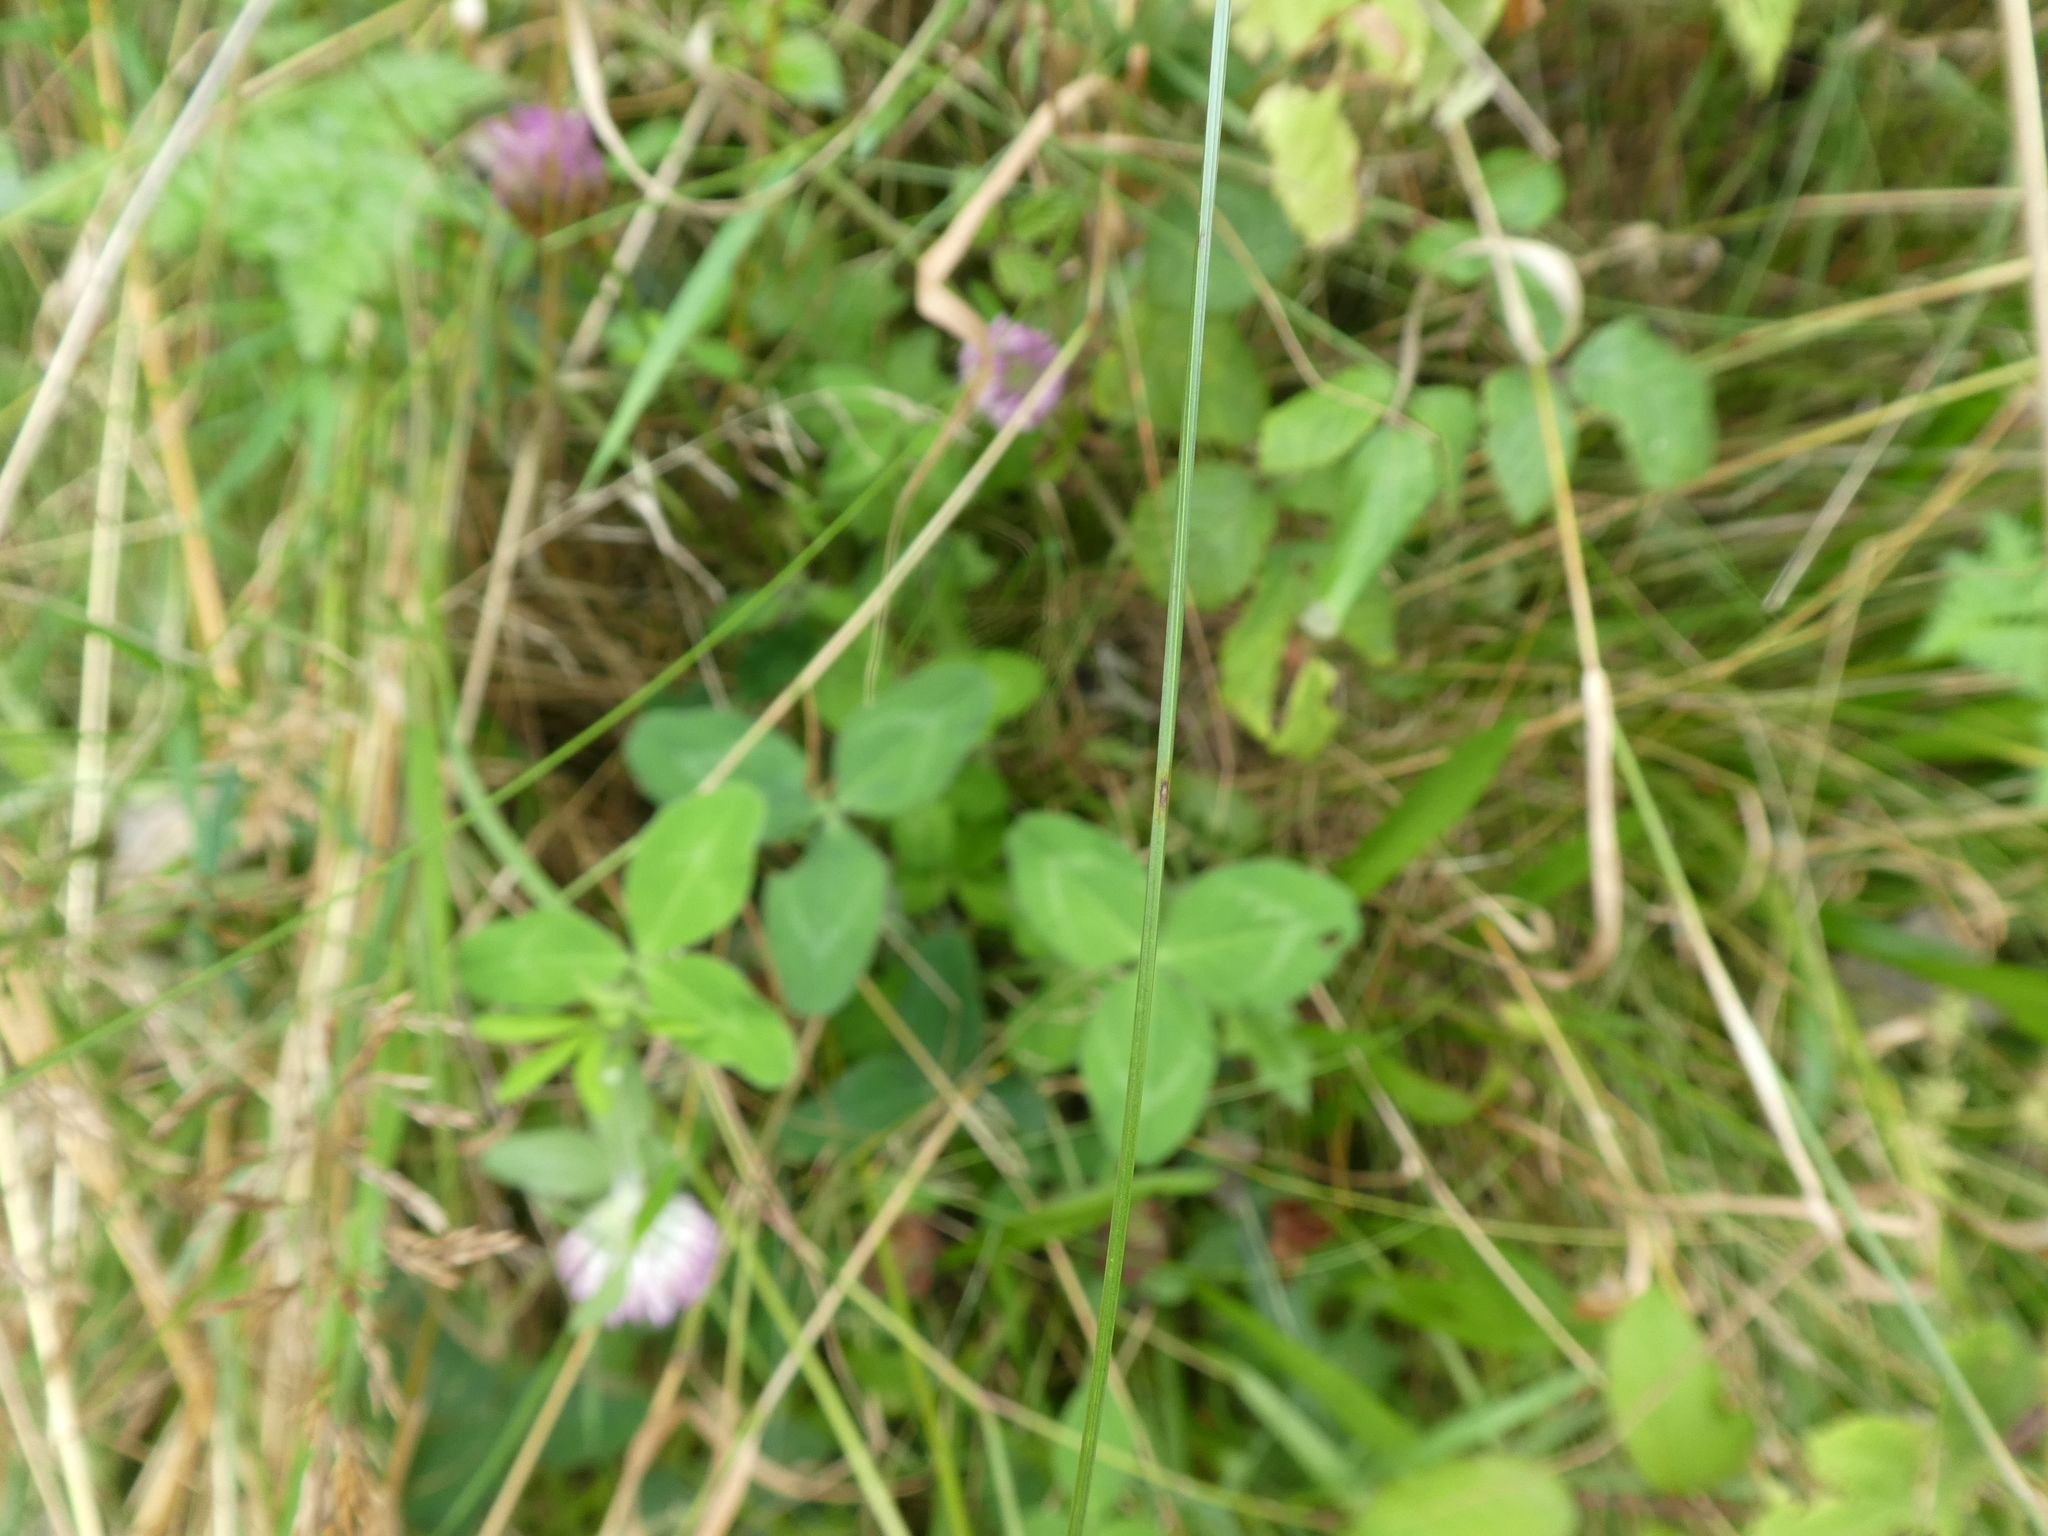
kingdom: Plantae
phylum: Tracheophyta
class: Magnoliopsida
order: Fabales
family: Fabaceae
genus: Trifolium
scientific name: Trifolium pratense
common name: Red clover
